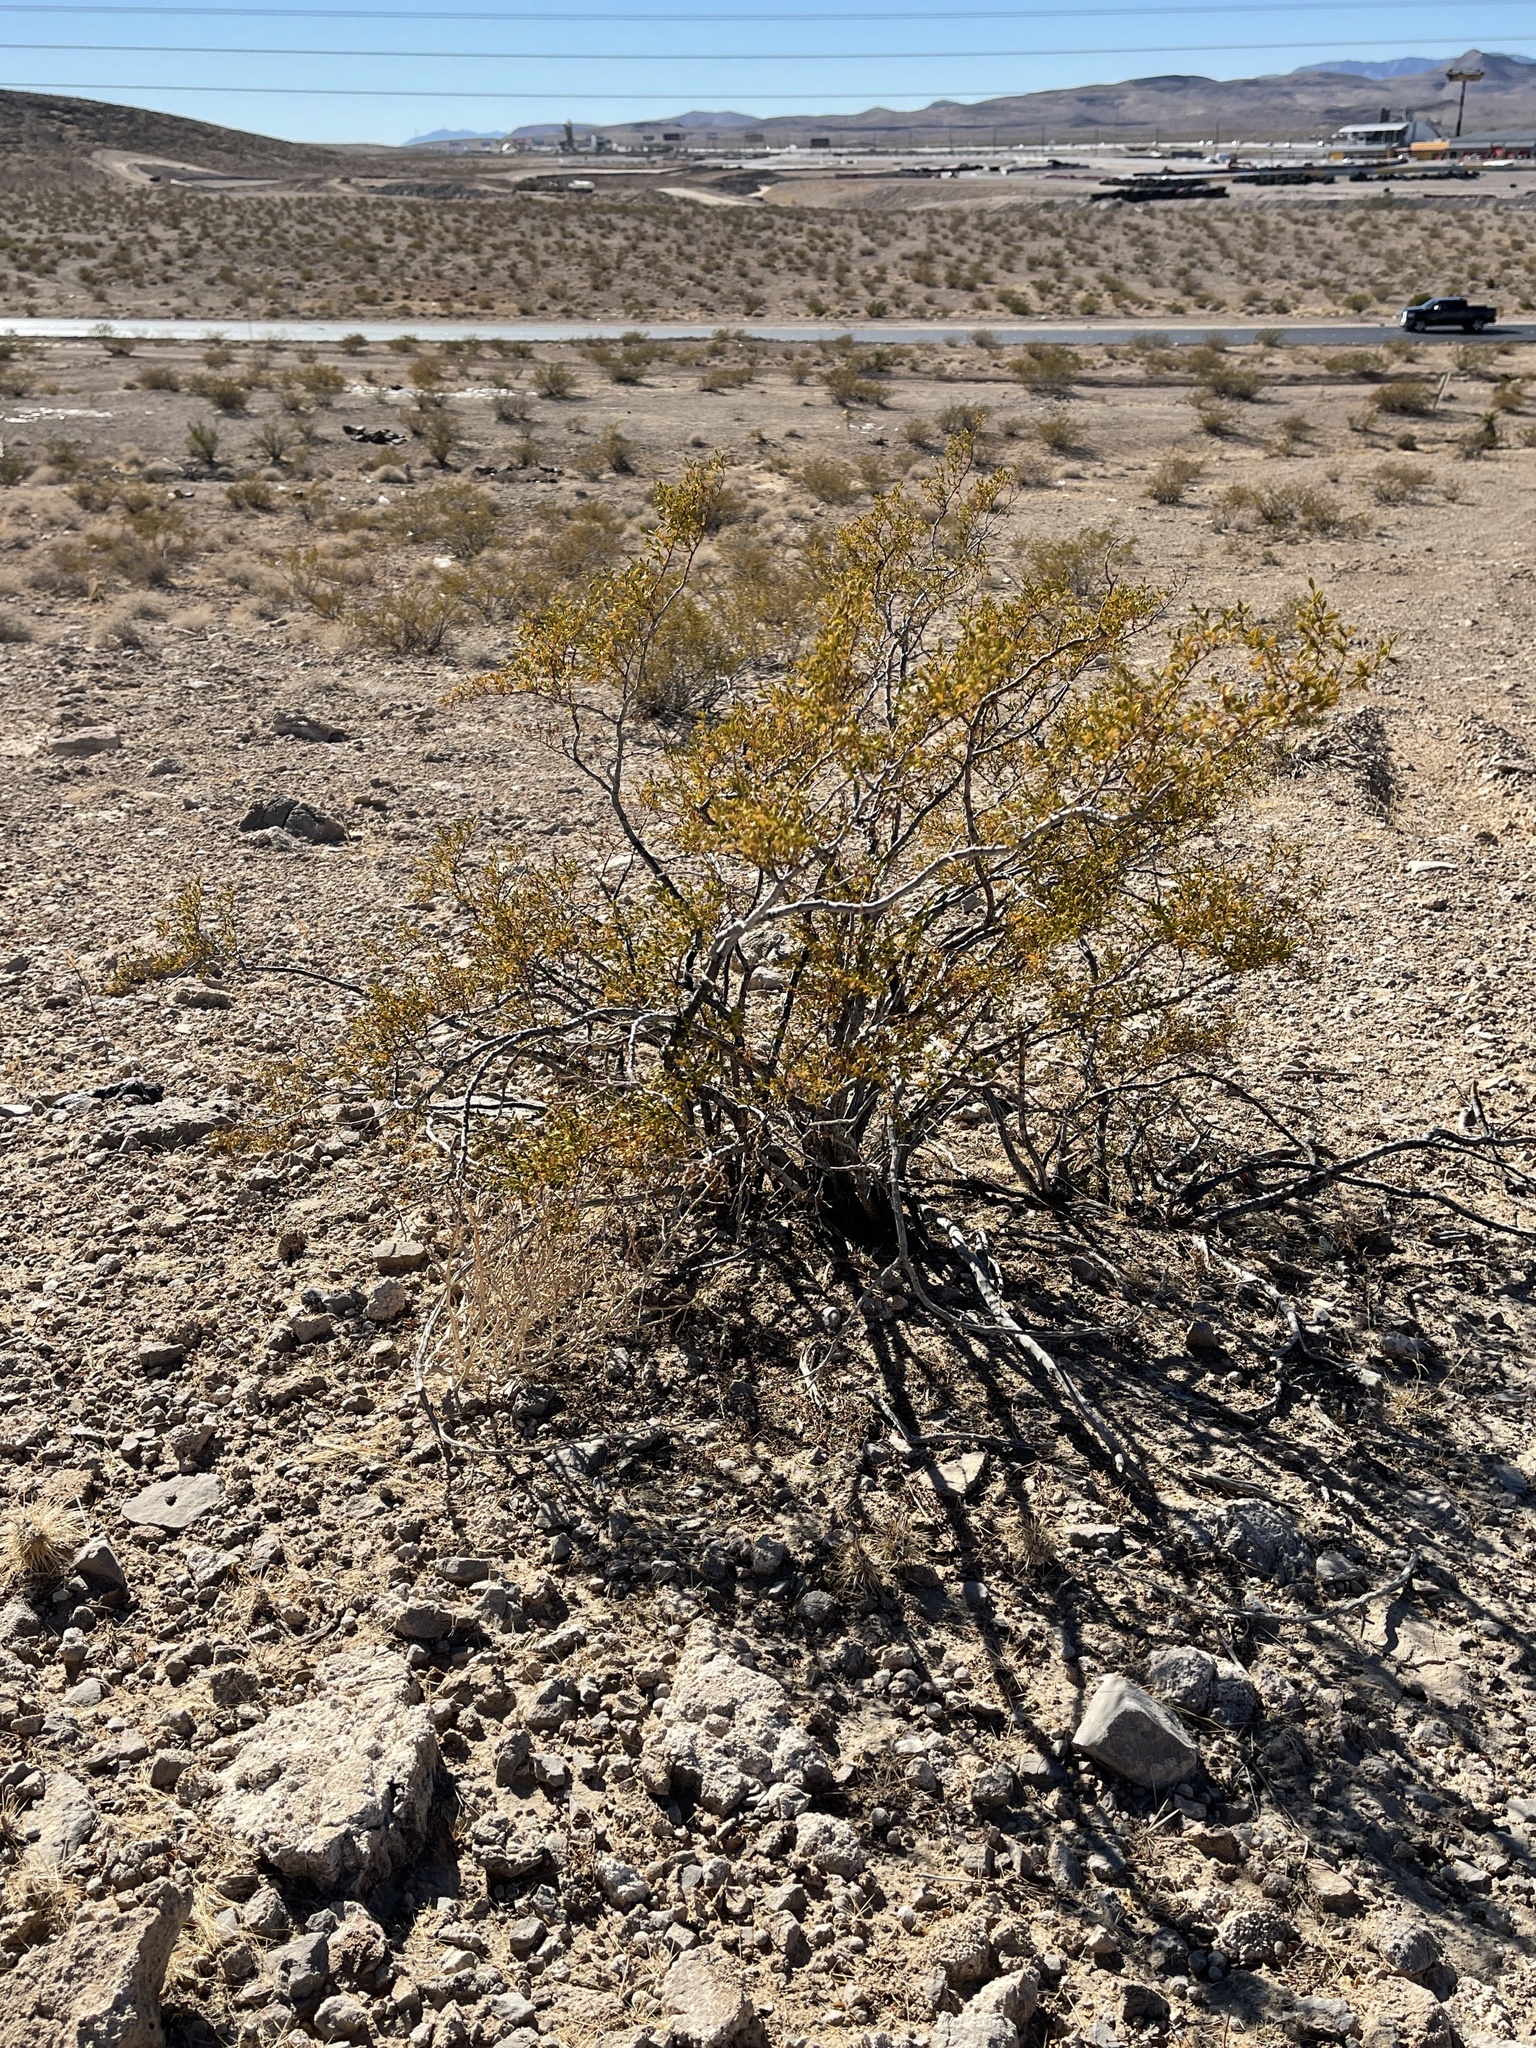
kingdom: Plantae
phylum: Tracheophyta
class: Magnoliopsida
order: Zygophyllales
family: Zygophyllaceae
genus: Larrea
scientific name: Larrea tridentata
